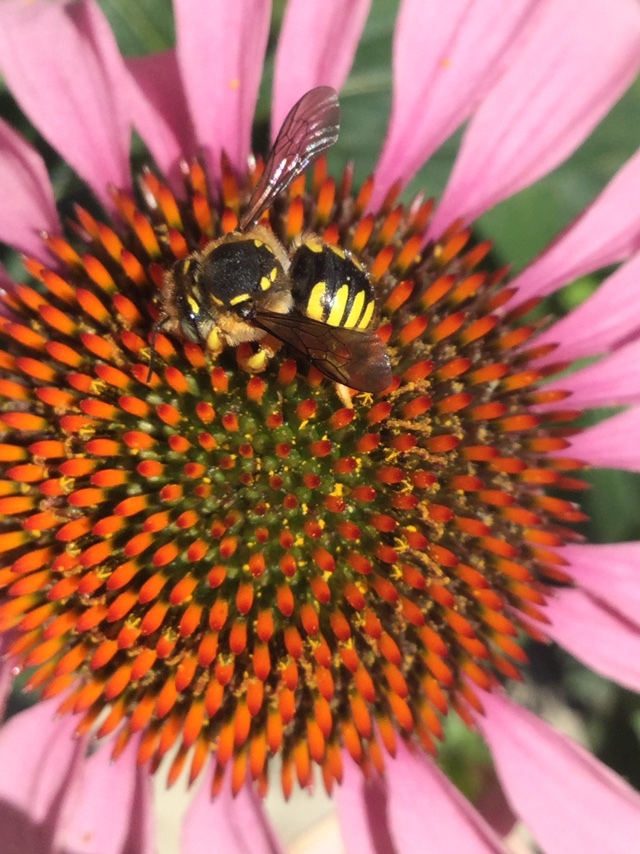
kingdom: Animalia
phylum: Arthropoda
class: Insecta
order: Hymenoptera
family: Megachilidae
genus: Anthidium
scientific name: Anthidium manicatum
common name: Wool carder bee
